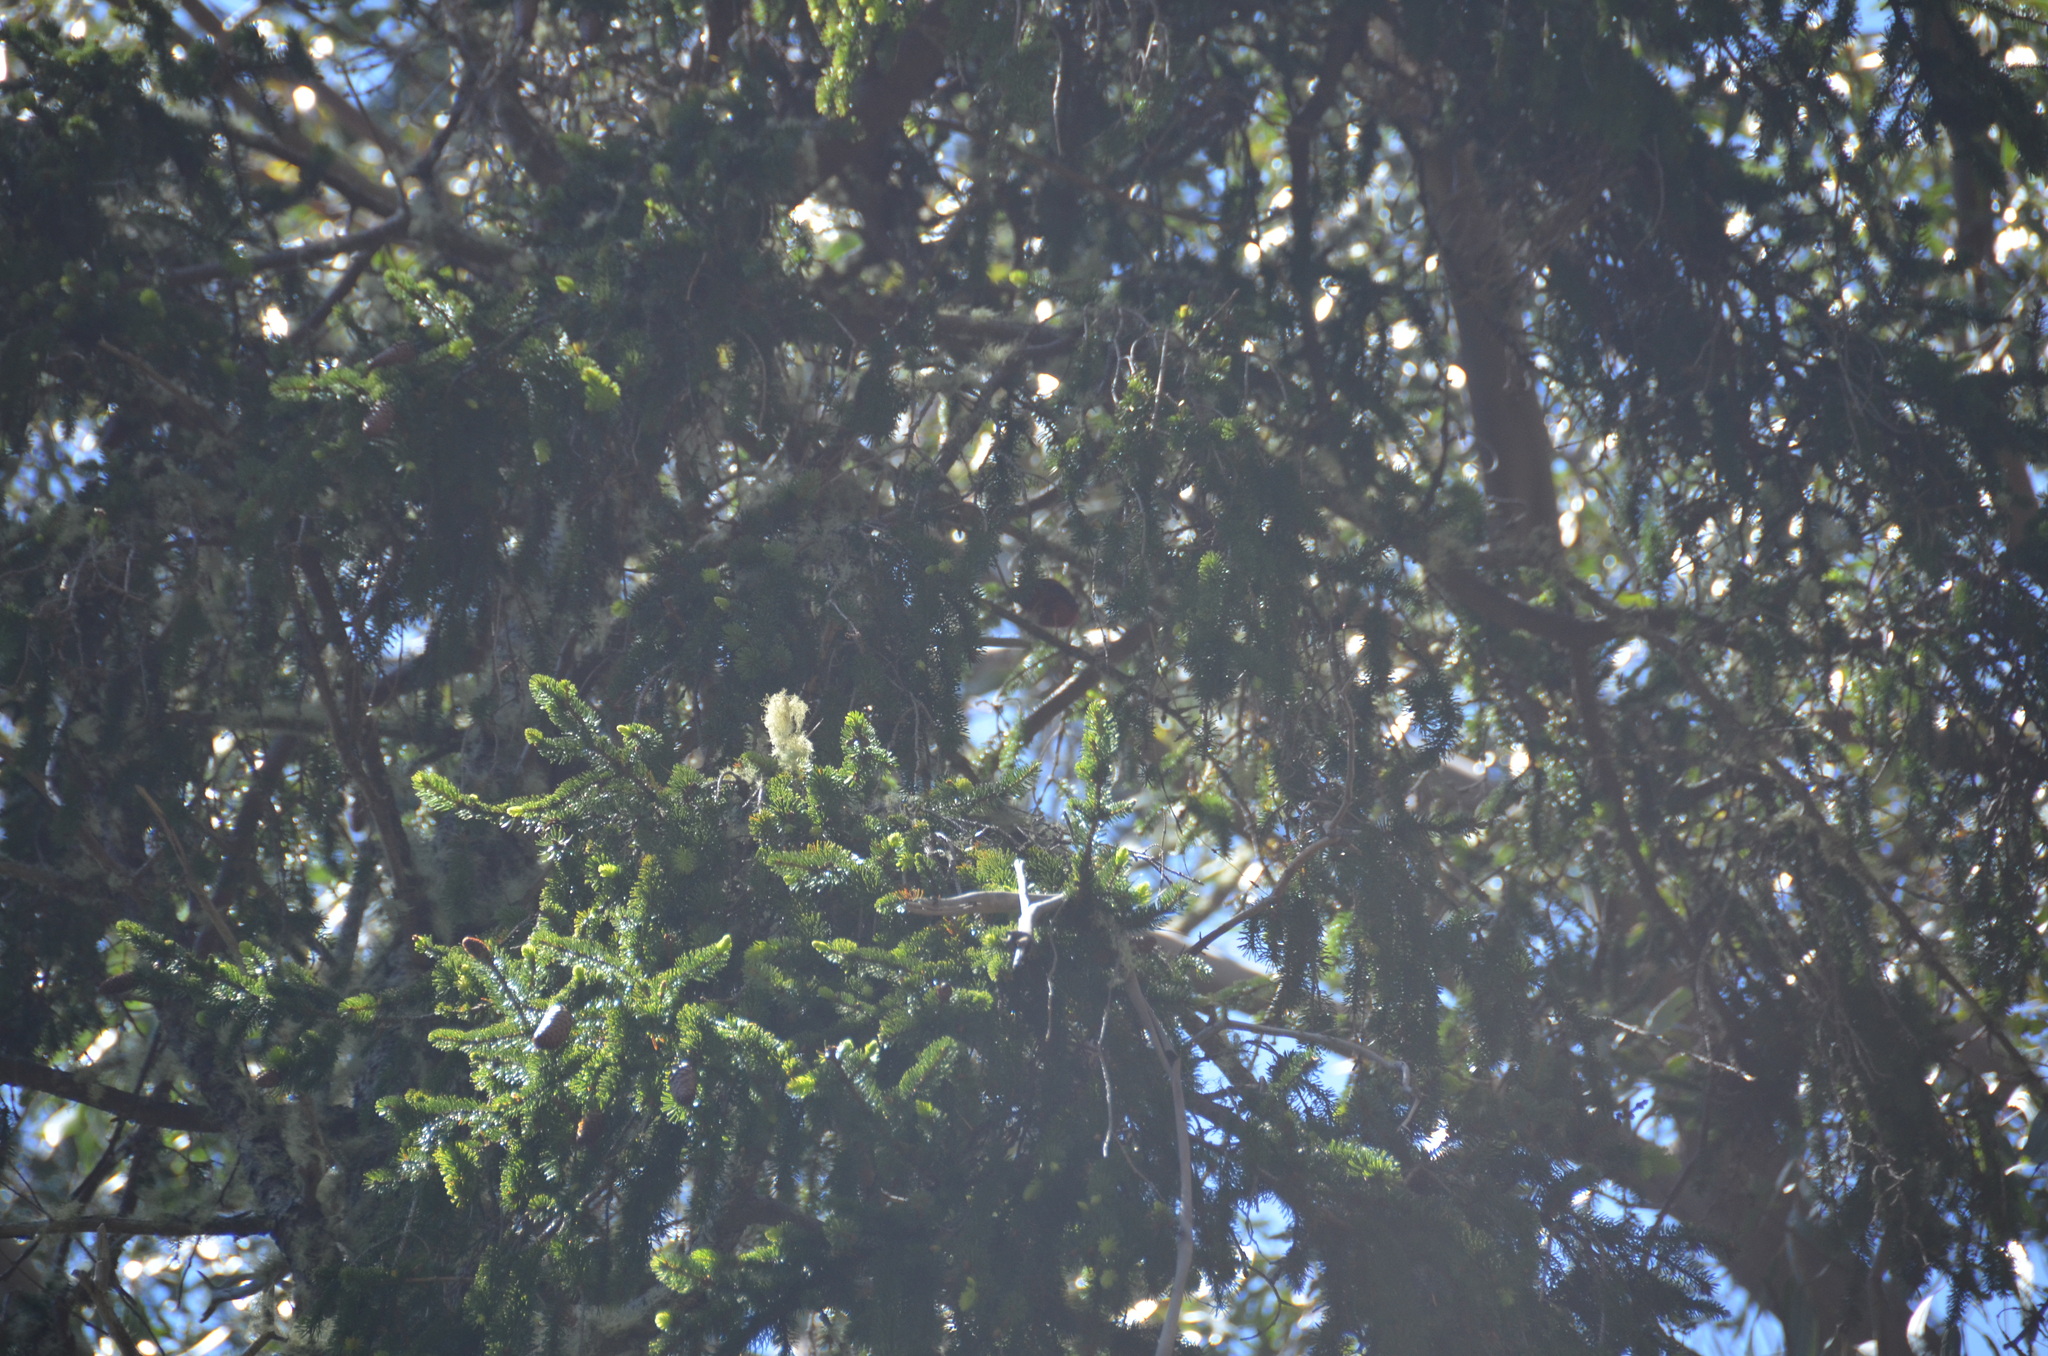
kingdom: Animalia
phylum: Chordata
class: Aves
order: Passeriformes
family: Fringillidae
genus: Vestiaria
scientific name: Vestiaria coccinea
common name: Iiwi
